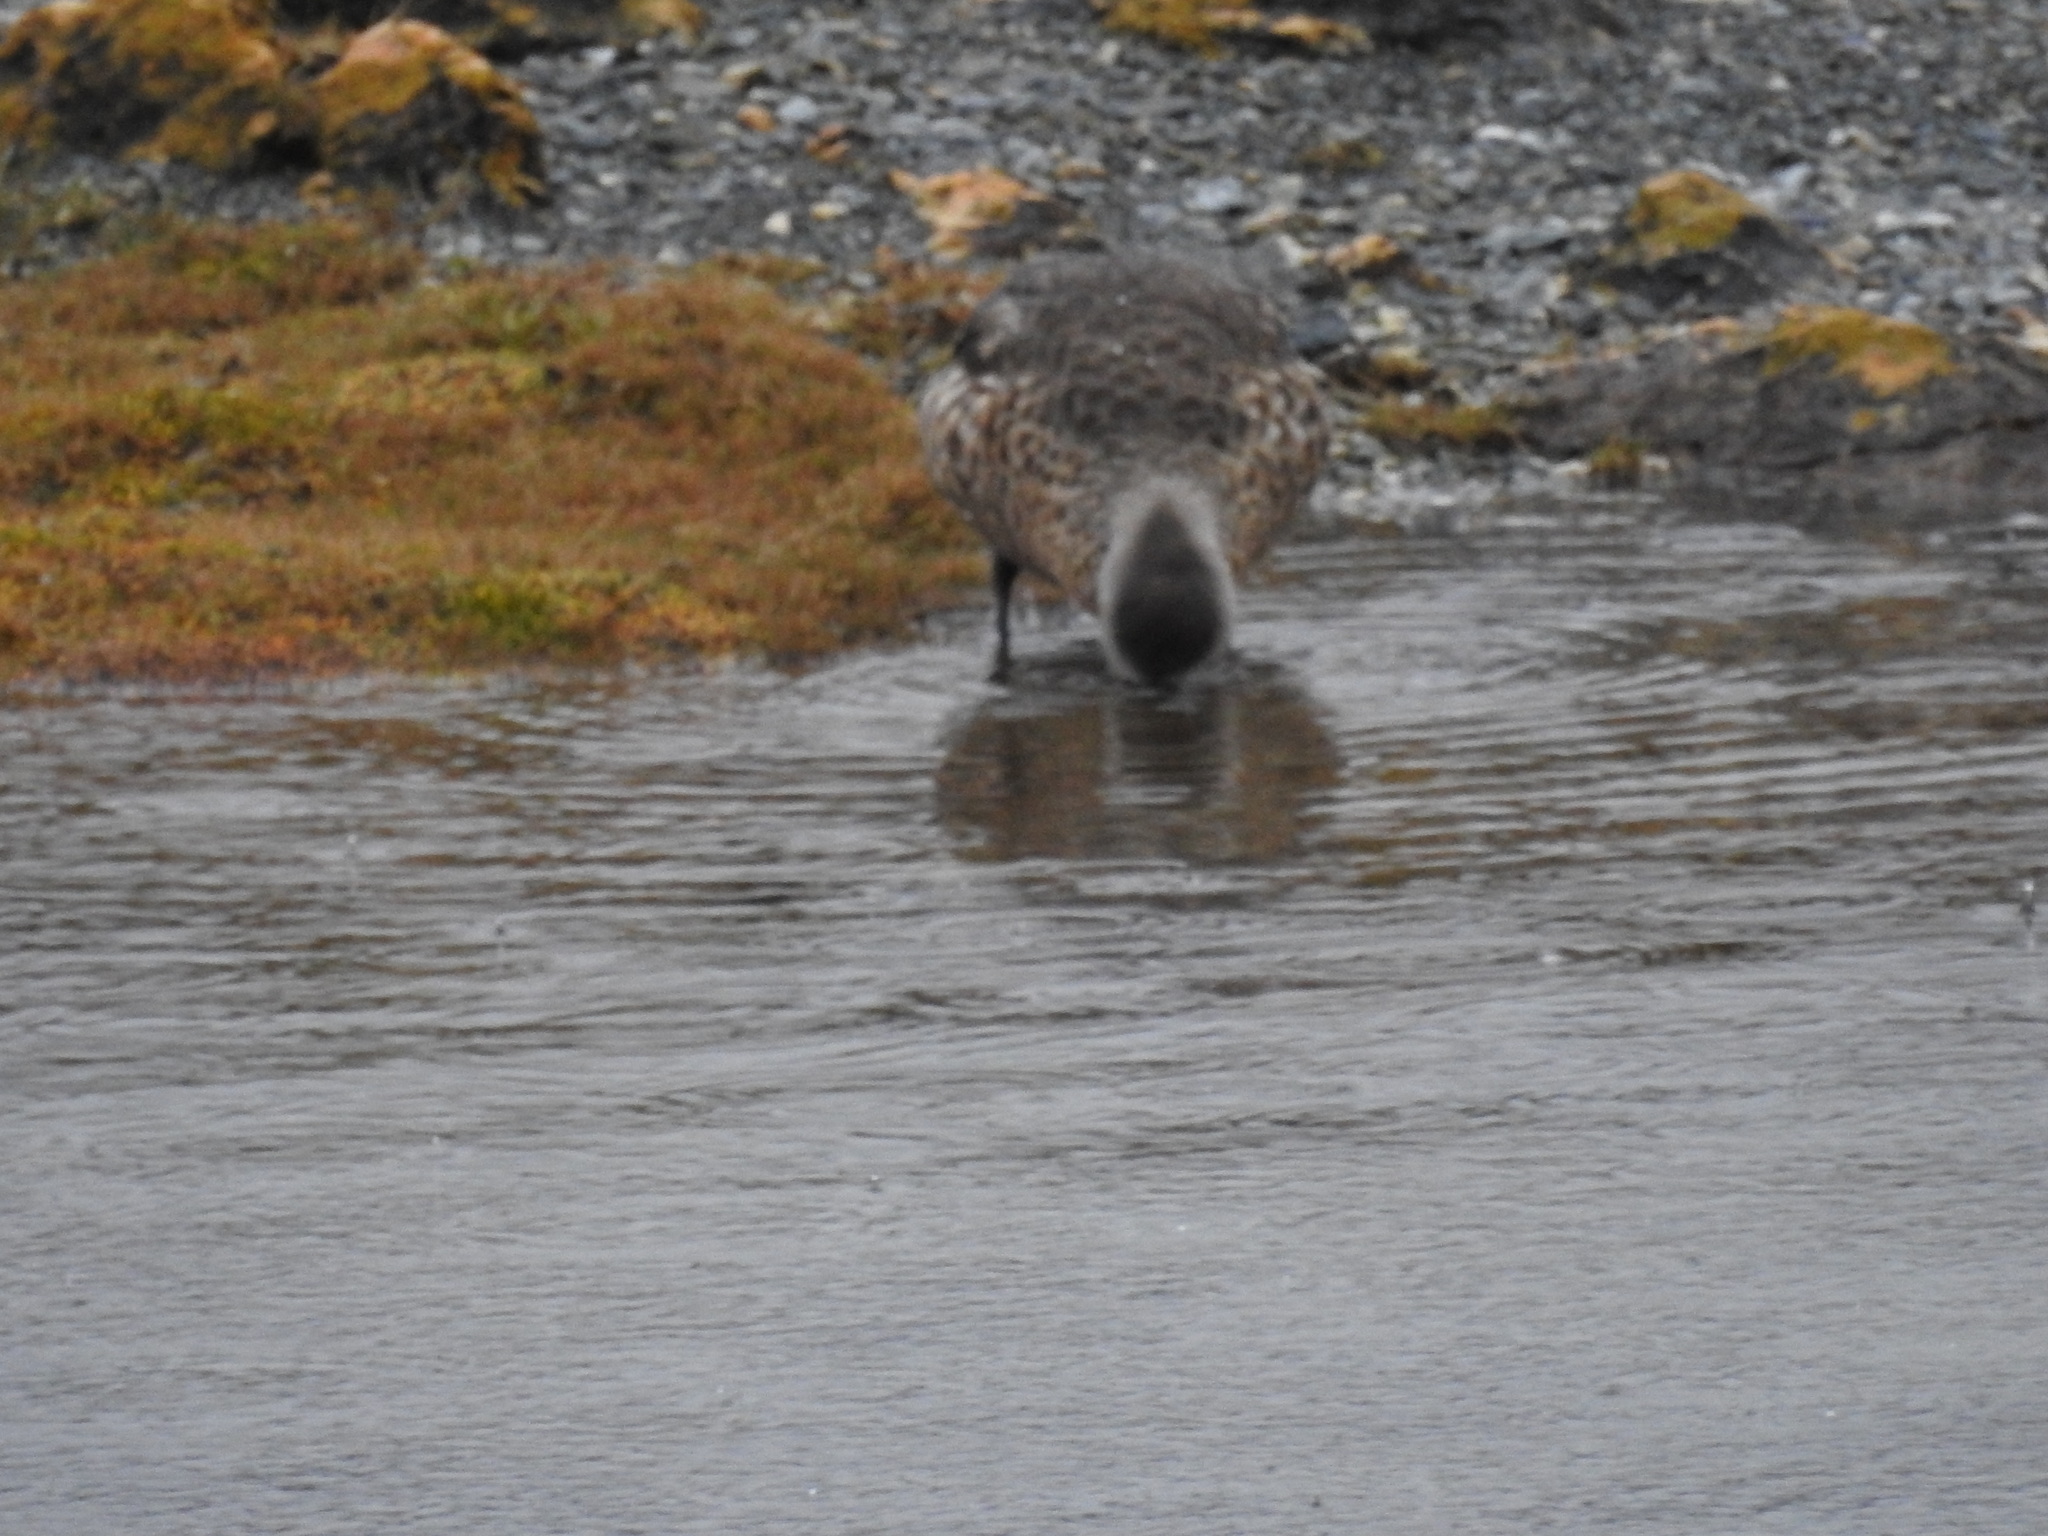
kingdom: Animalia
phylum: Chordata
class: Aves
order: Anseriformes
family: Anatidae
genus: Lophonetta
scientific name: Lophonetta specularioides
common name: Crested duck
